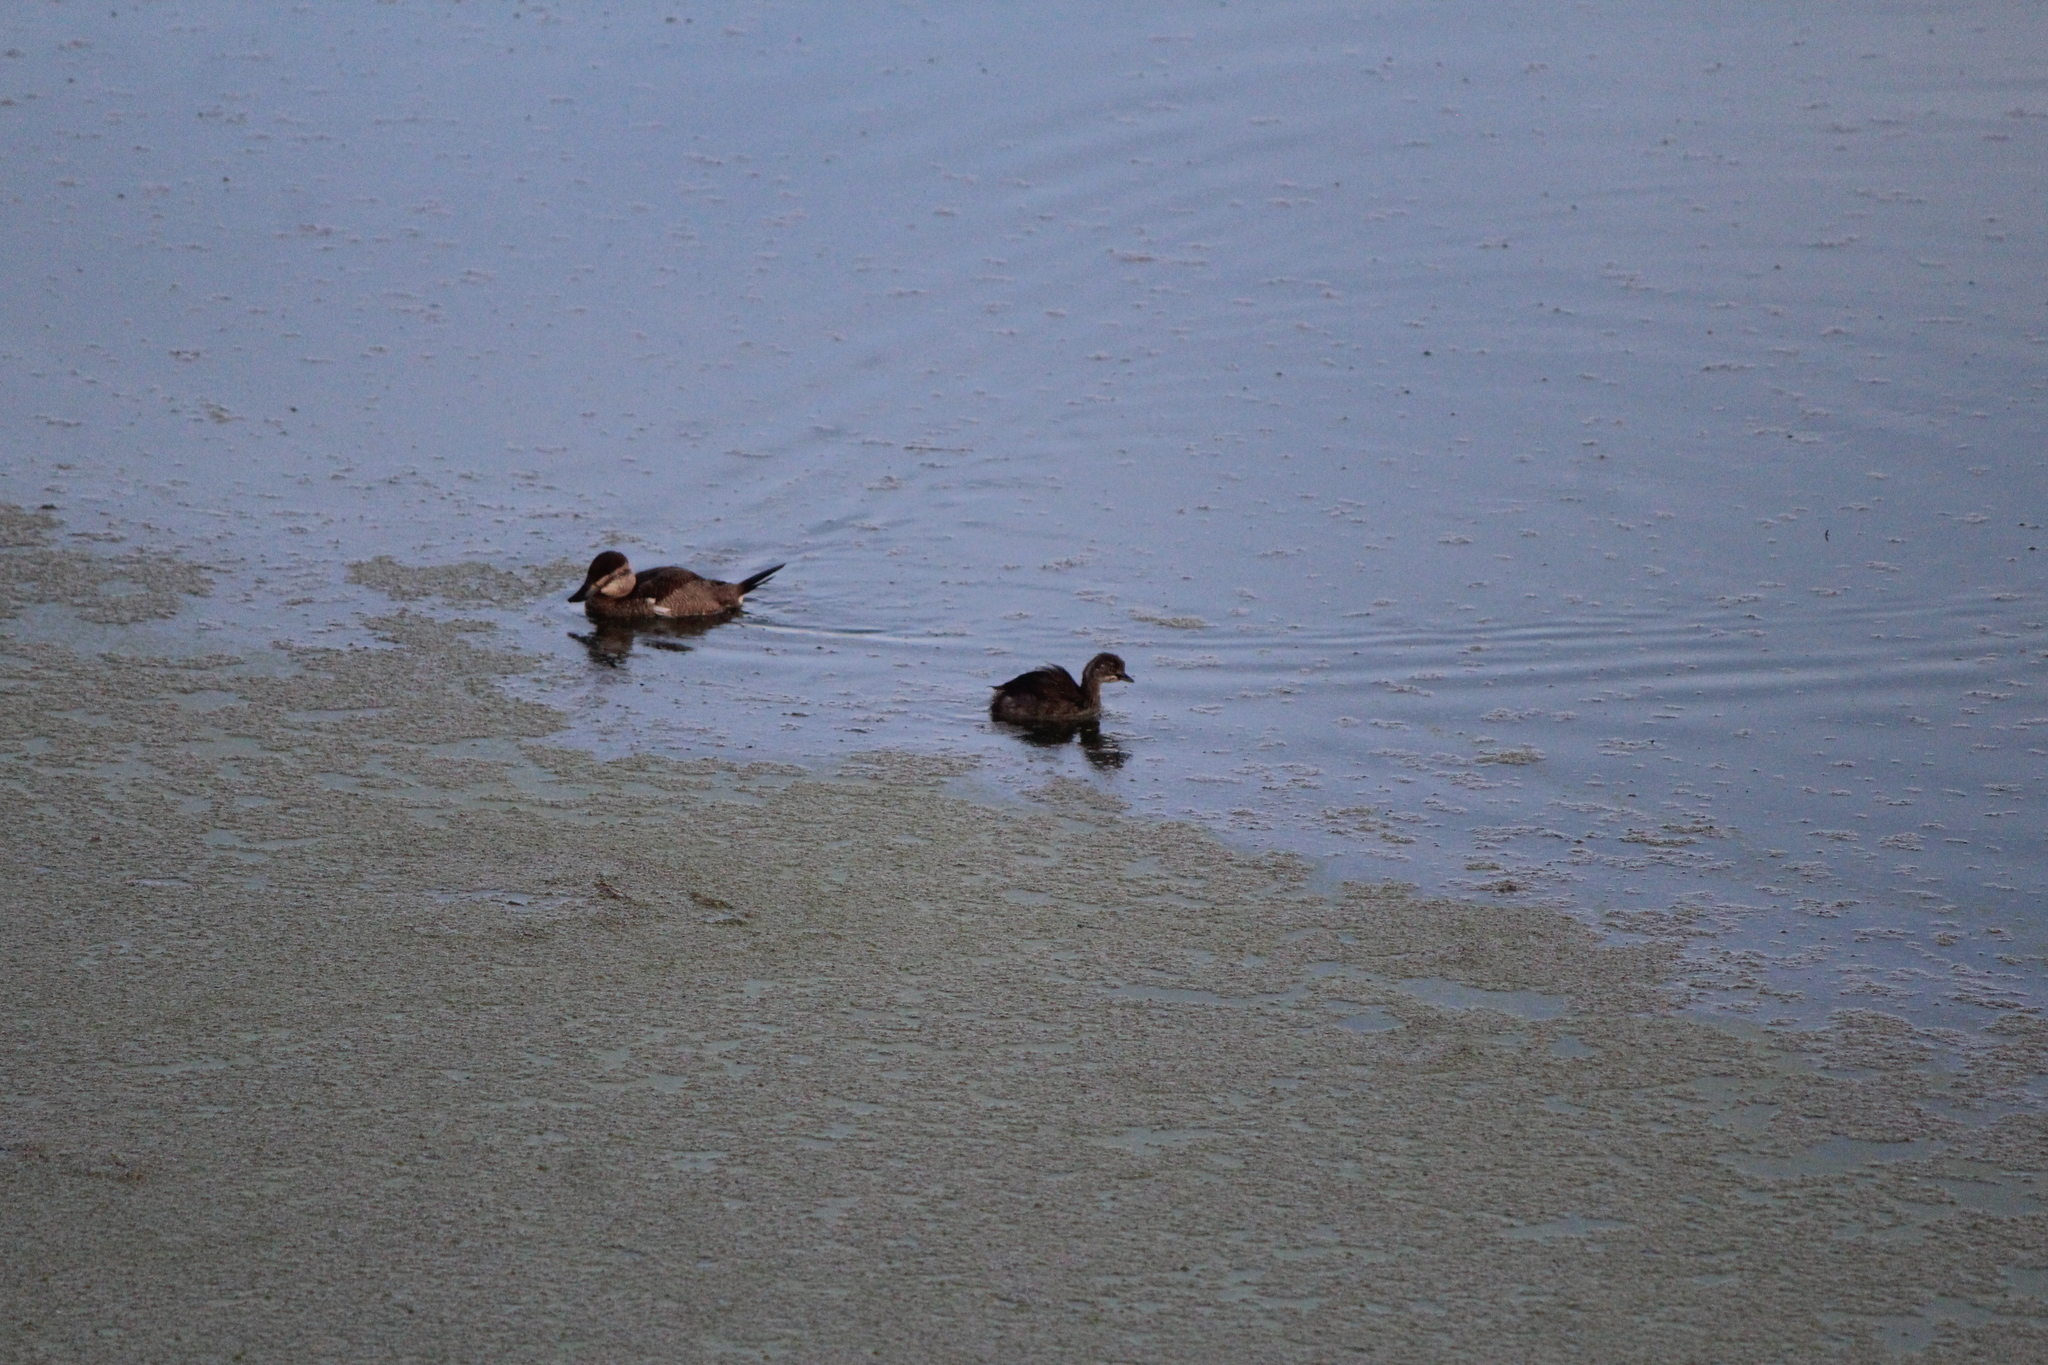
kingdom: Animalia
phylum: Chordata
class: Aves
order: Podicipediformes
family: Podicipedidae
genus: Tachybaptus
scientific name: Tachybaptus dominicus
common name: Least grebe
